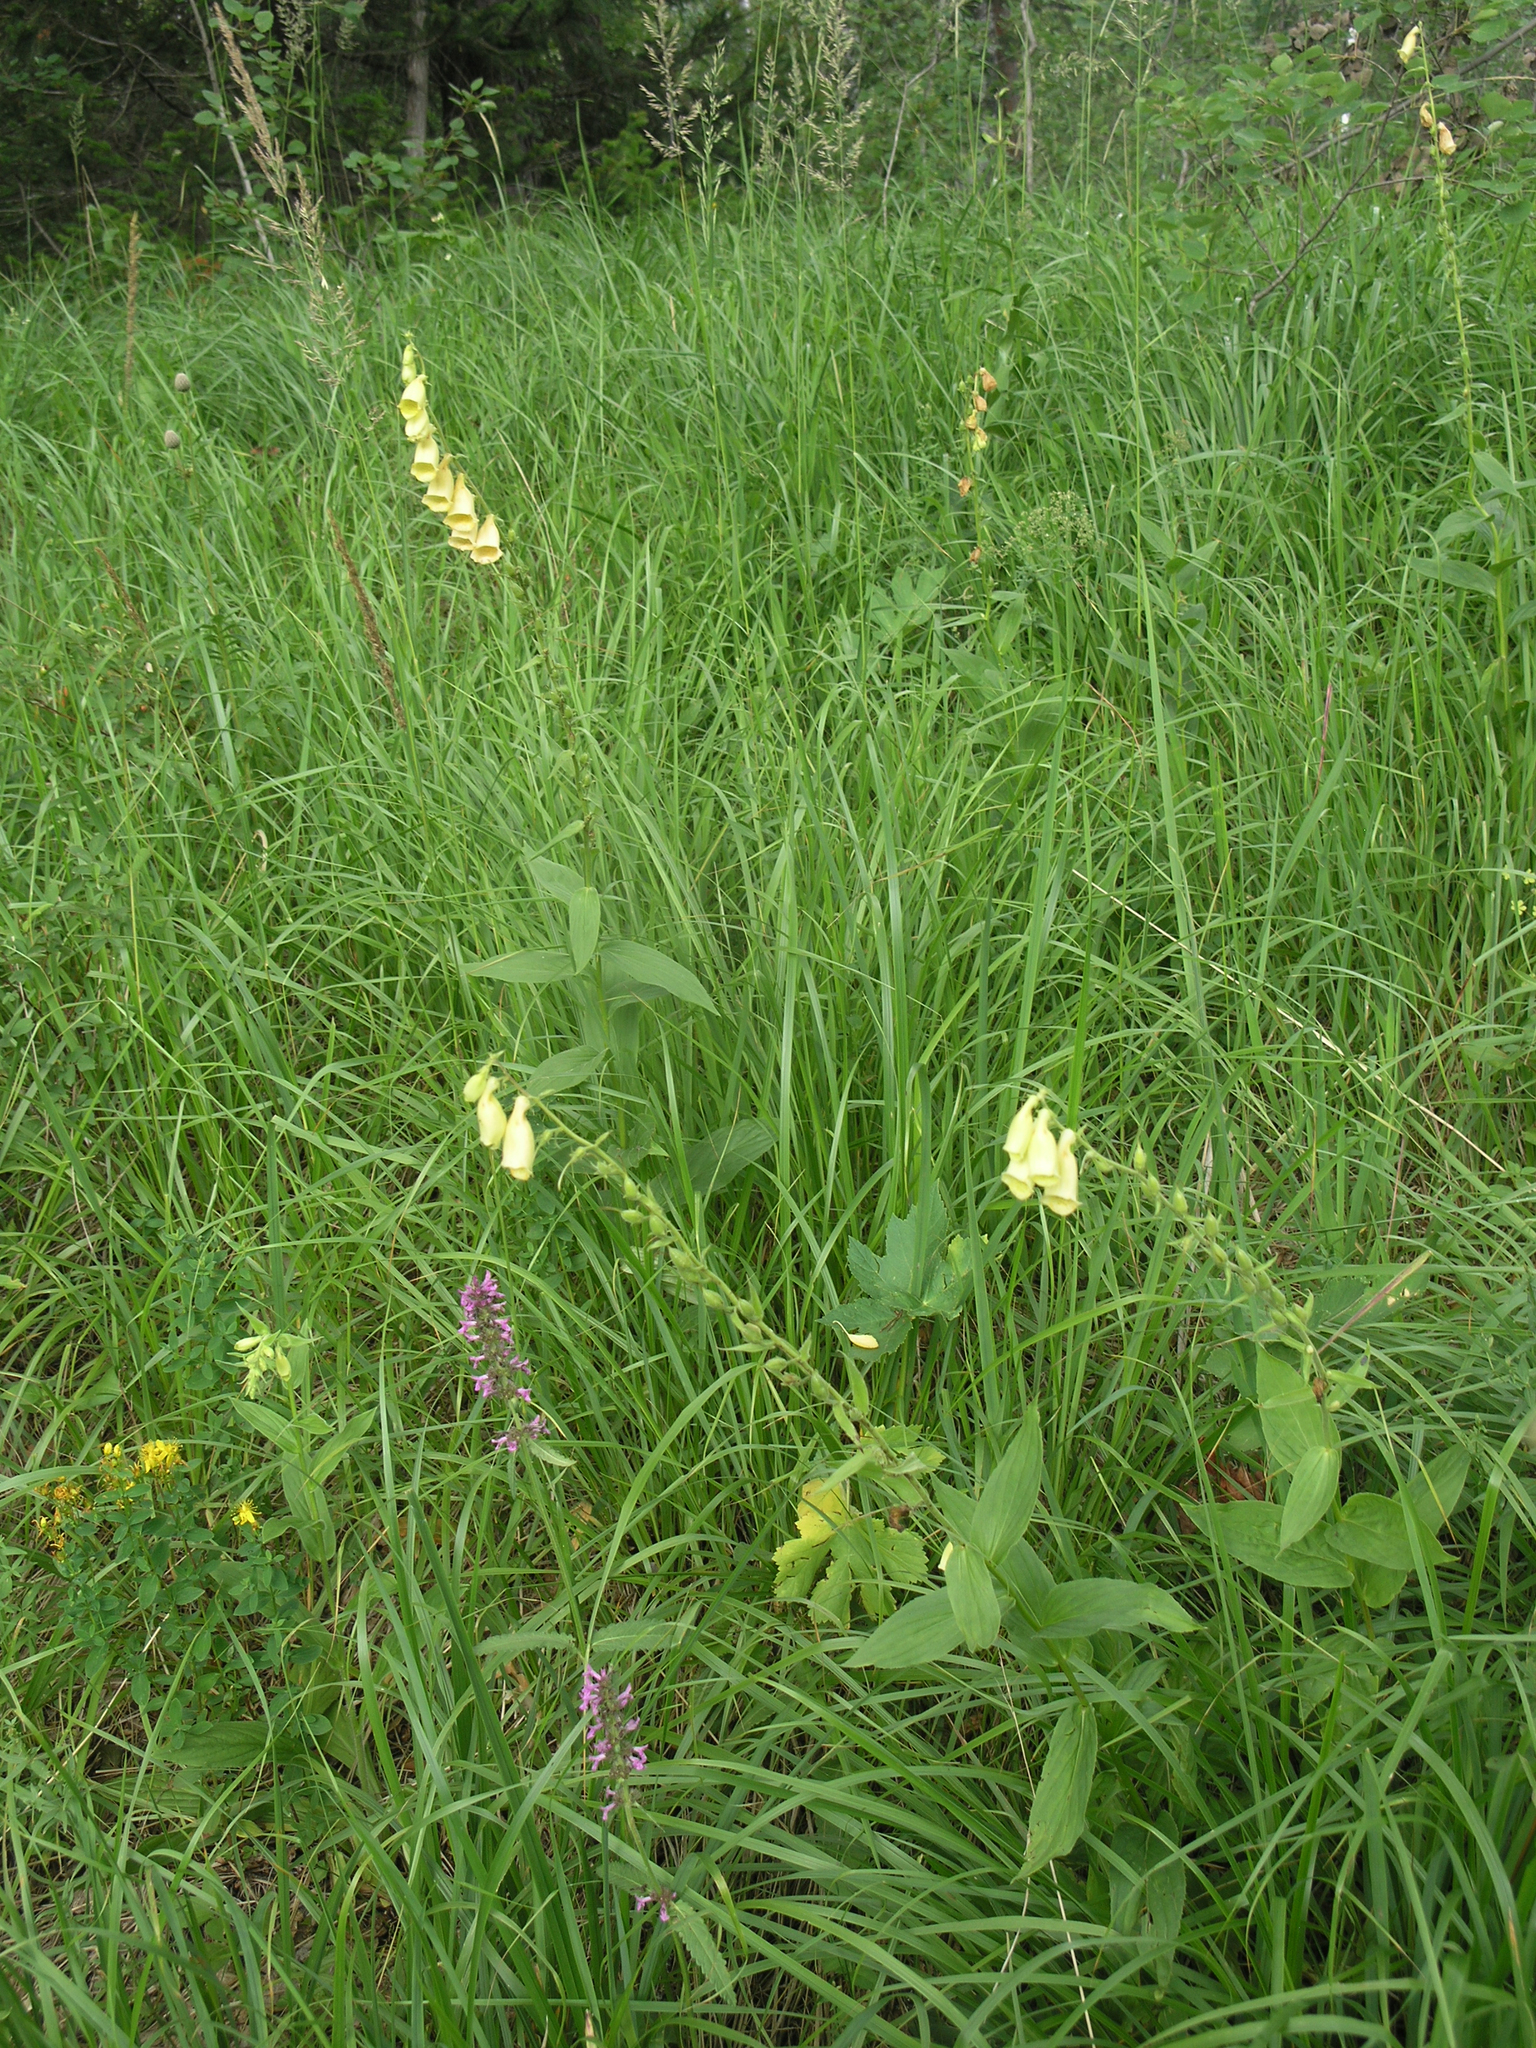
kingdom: Plantae
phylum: Tracheophyta
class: Magnoliopsida
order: Lamiales
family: Plantaginaceae
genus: Digitalis
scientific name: Digitalis grandiflora
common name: Yellow foxglove
